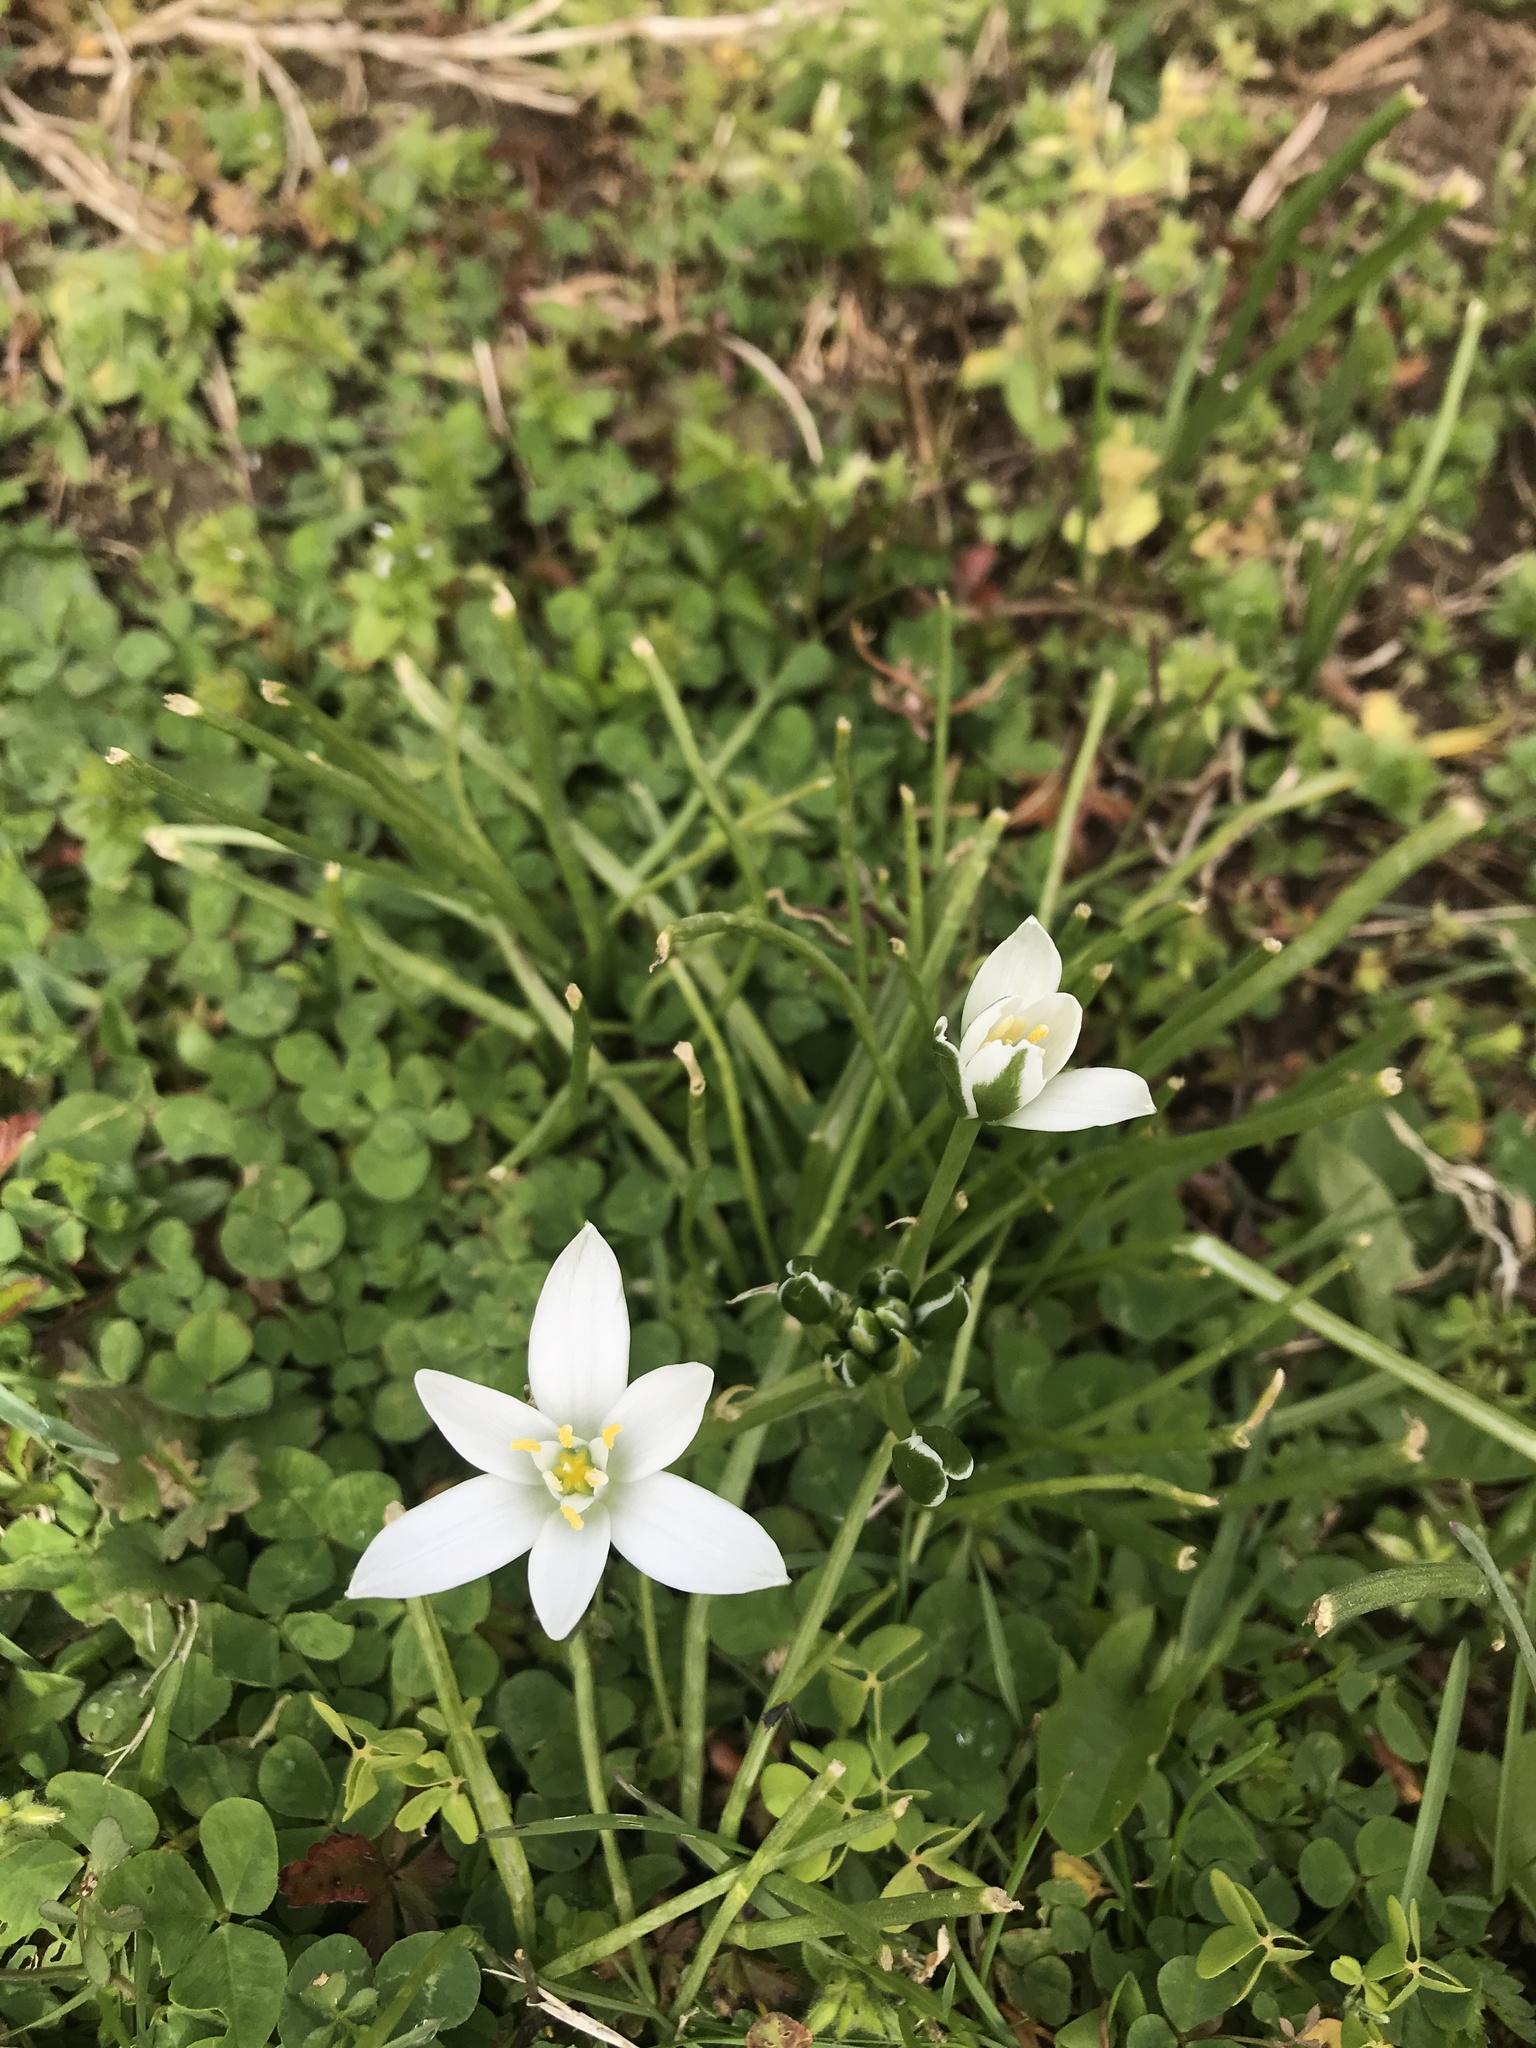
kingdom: Plantae
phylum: Tracheophyta
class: Liliopsida
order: Asparagales
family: Asparagaceae
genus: Ornithogalum
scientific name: Ornithogalum umbellatum
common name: Garden star-of-bethlehem
